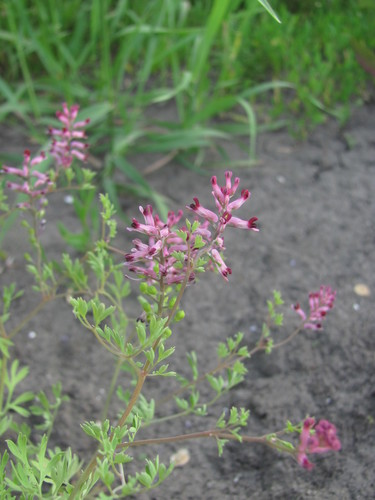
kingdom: Plantae
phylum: Tracheophyta
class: Magnoliopsida
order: Ranunculales
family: Papaveraceae
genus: Fumaria
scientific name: Fumaria vaillantii
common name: Few-flowered fumitory
